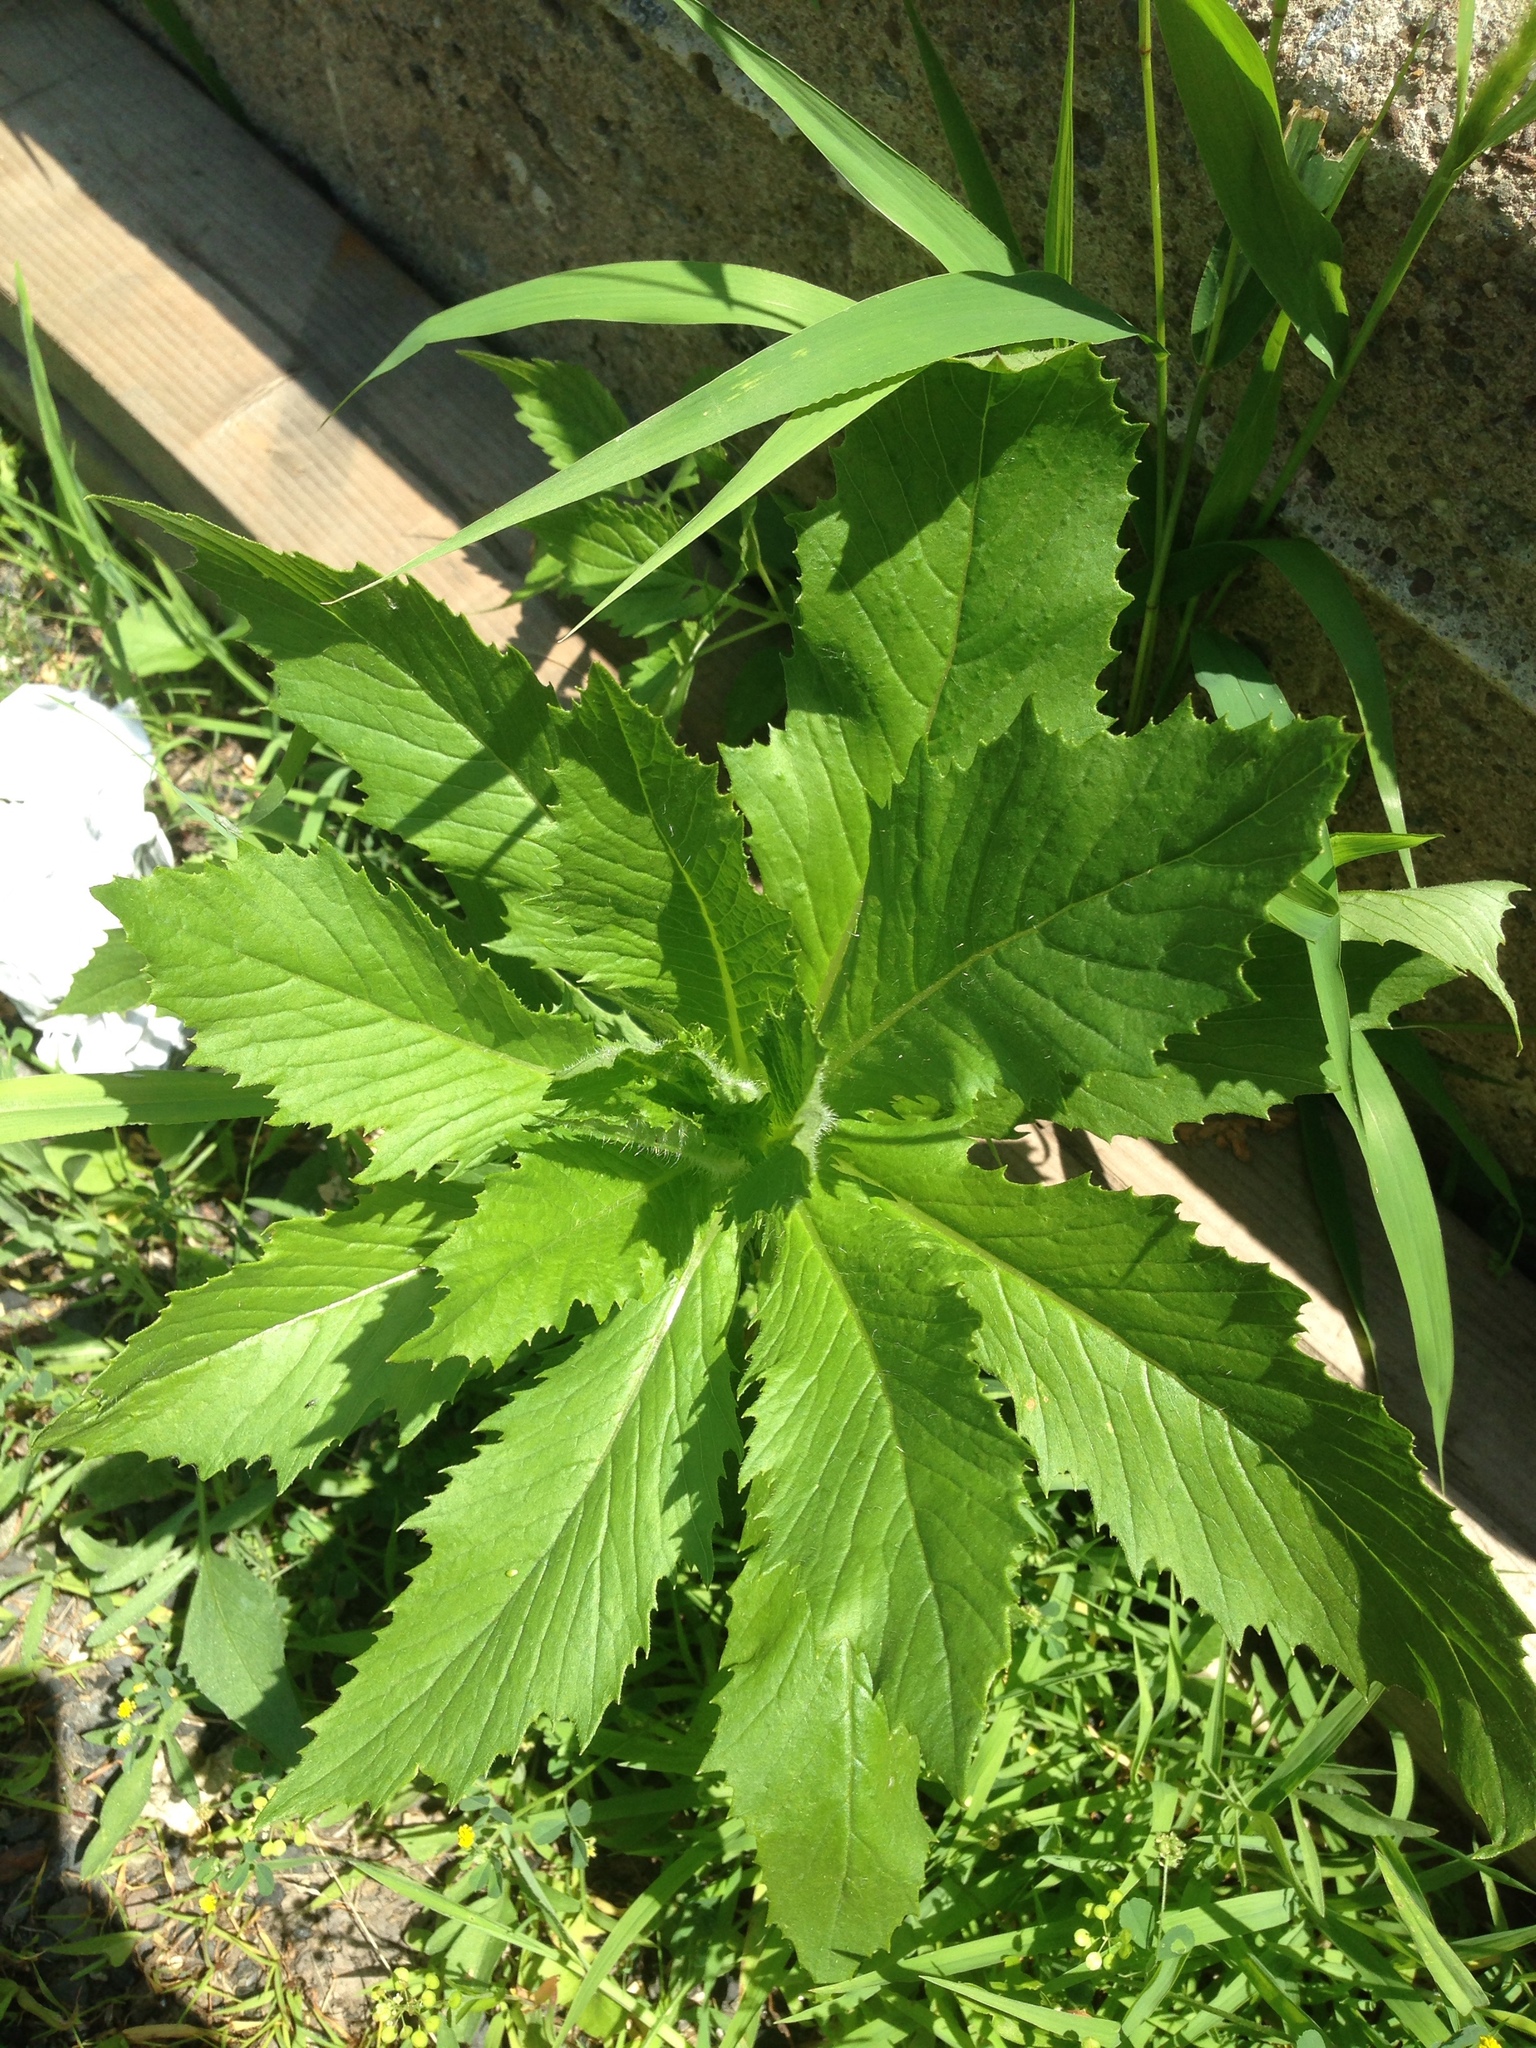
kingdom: Plantae
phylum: Tracheophyta
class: Magnoliopsida
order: Asterales
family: Asteraceae
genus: Erechtites
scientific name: Erechtites hieraciifolius
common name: American burnweed
